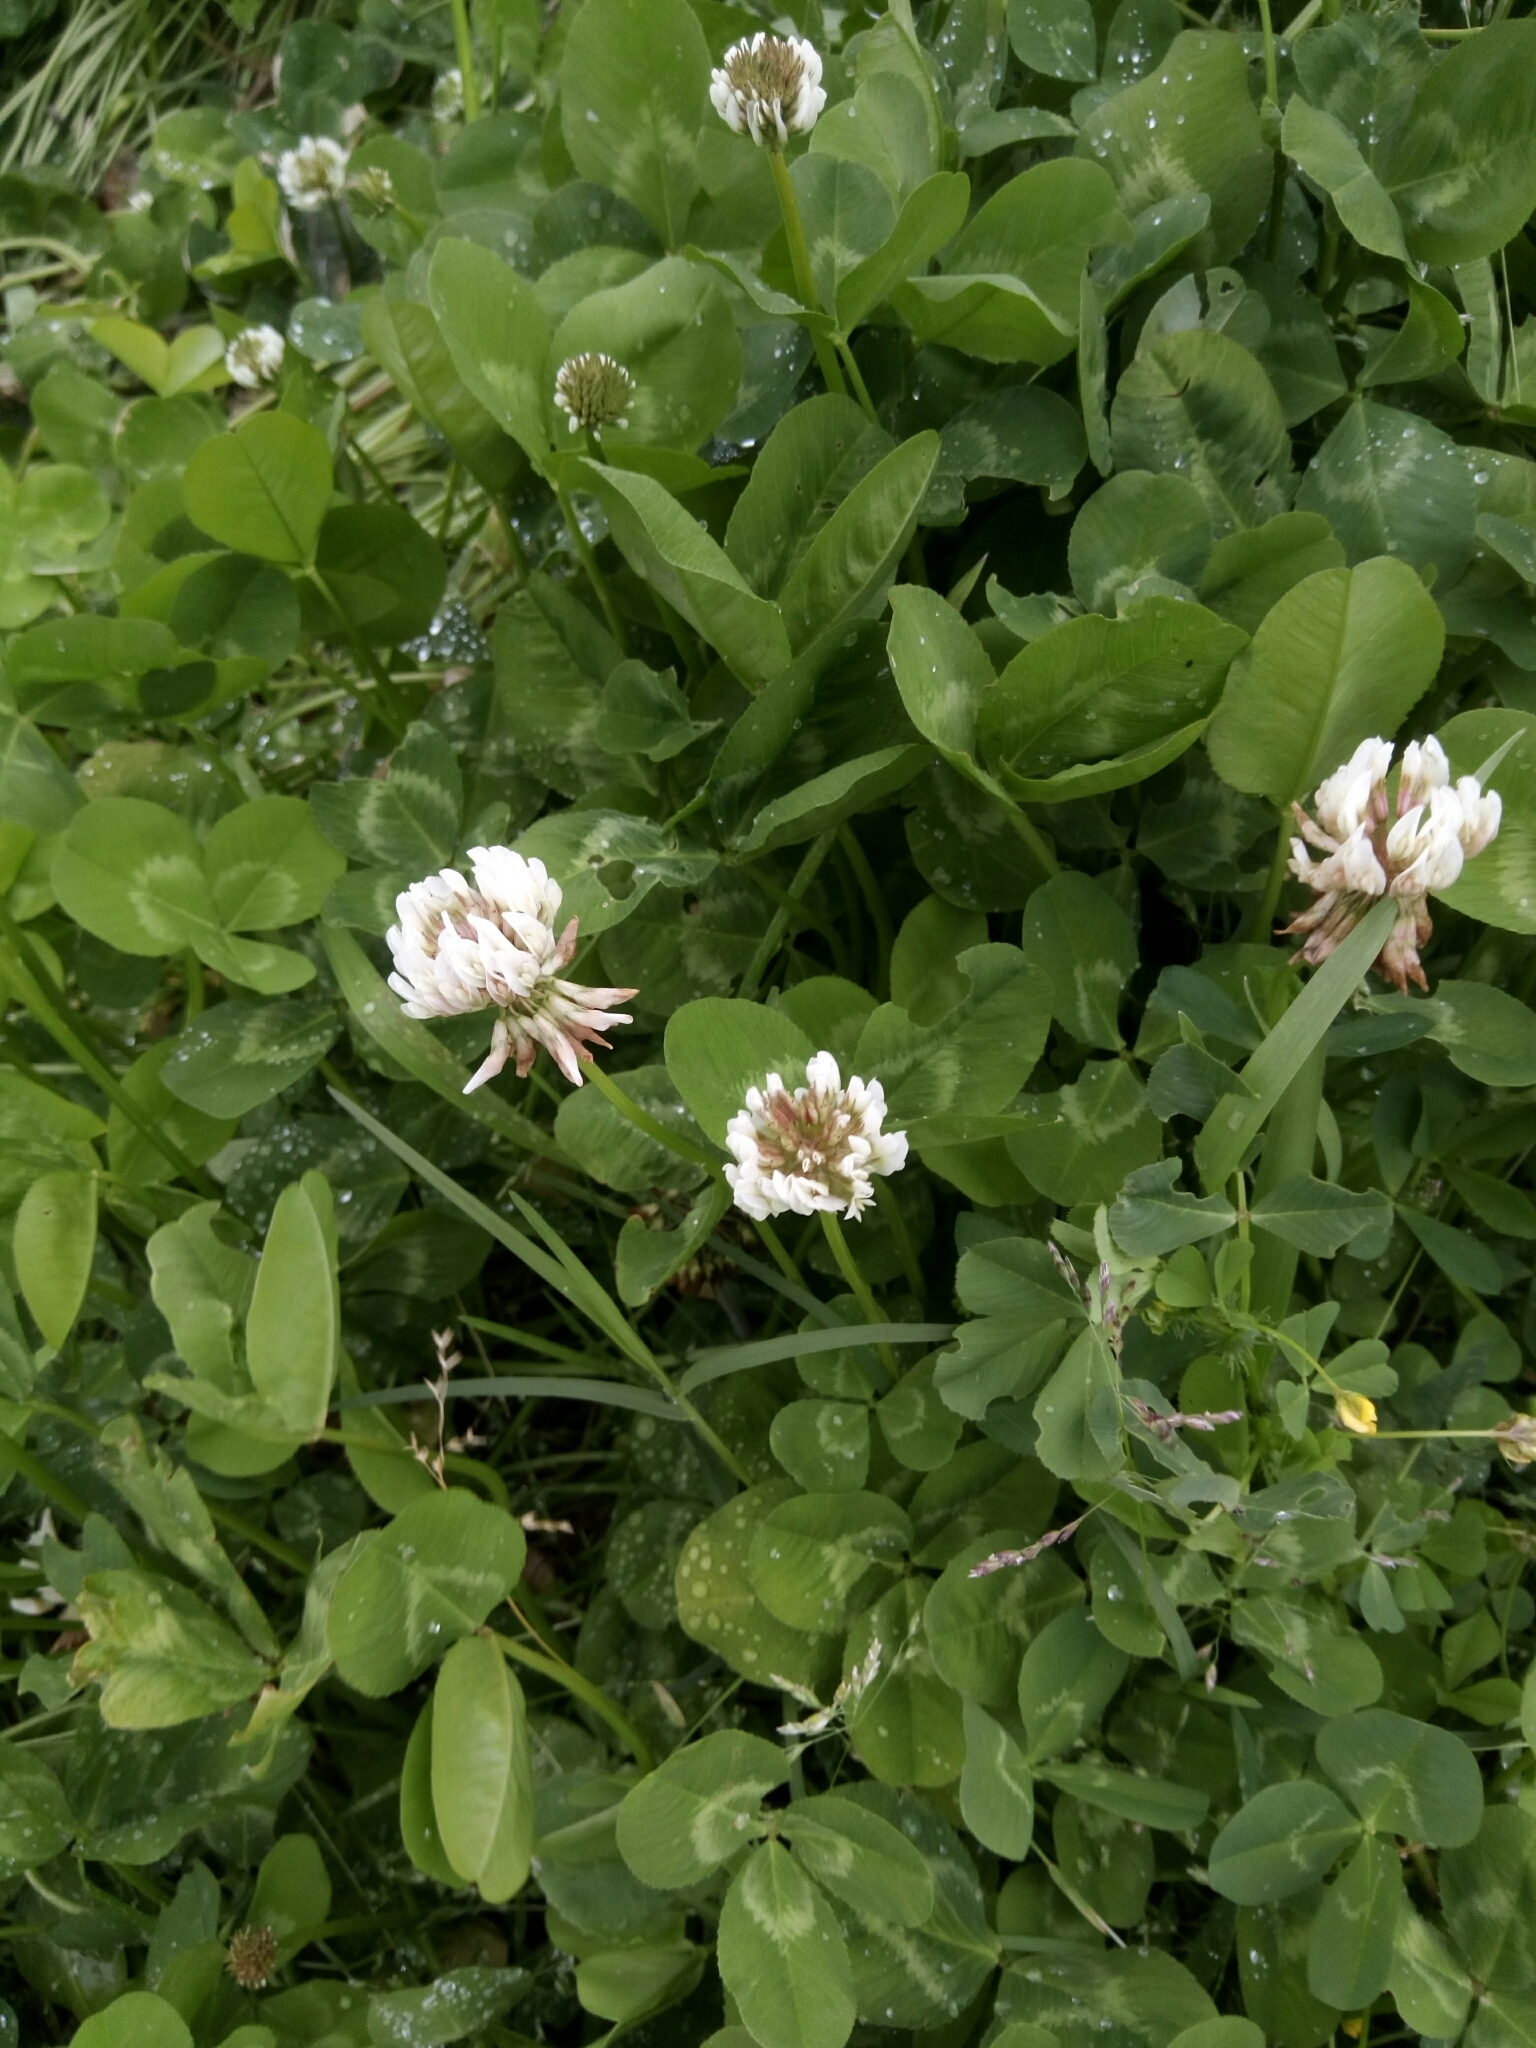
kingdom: Plantae
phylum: Tracheophyta
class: Magnoliopsida
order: Fabales
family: Fabaceae
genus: Trifolium
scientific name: Trifolium repens
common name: White clover
